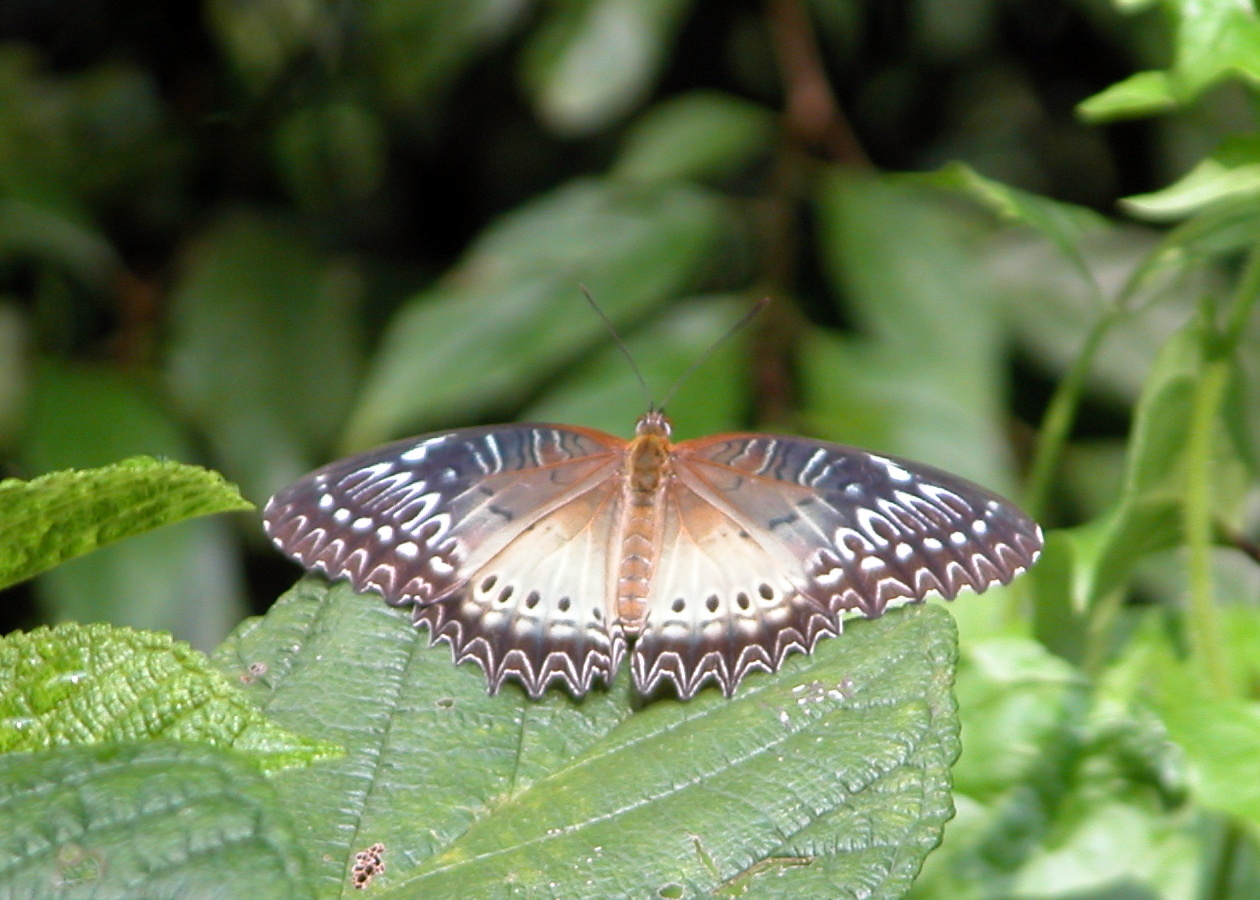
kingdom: Animalia
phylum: Arthropoda
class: Insecta
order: Lepidoptera
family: Nymphalidae
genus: Cethosia
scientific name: Cethosia biblis
